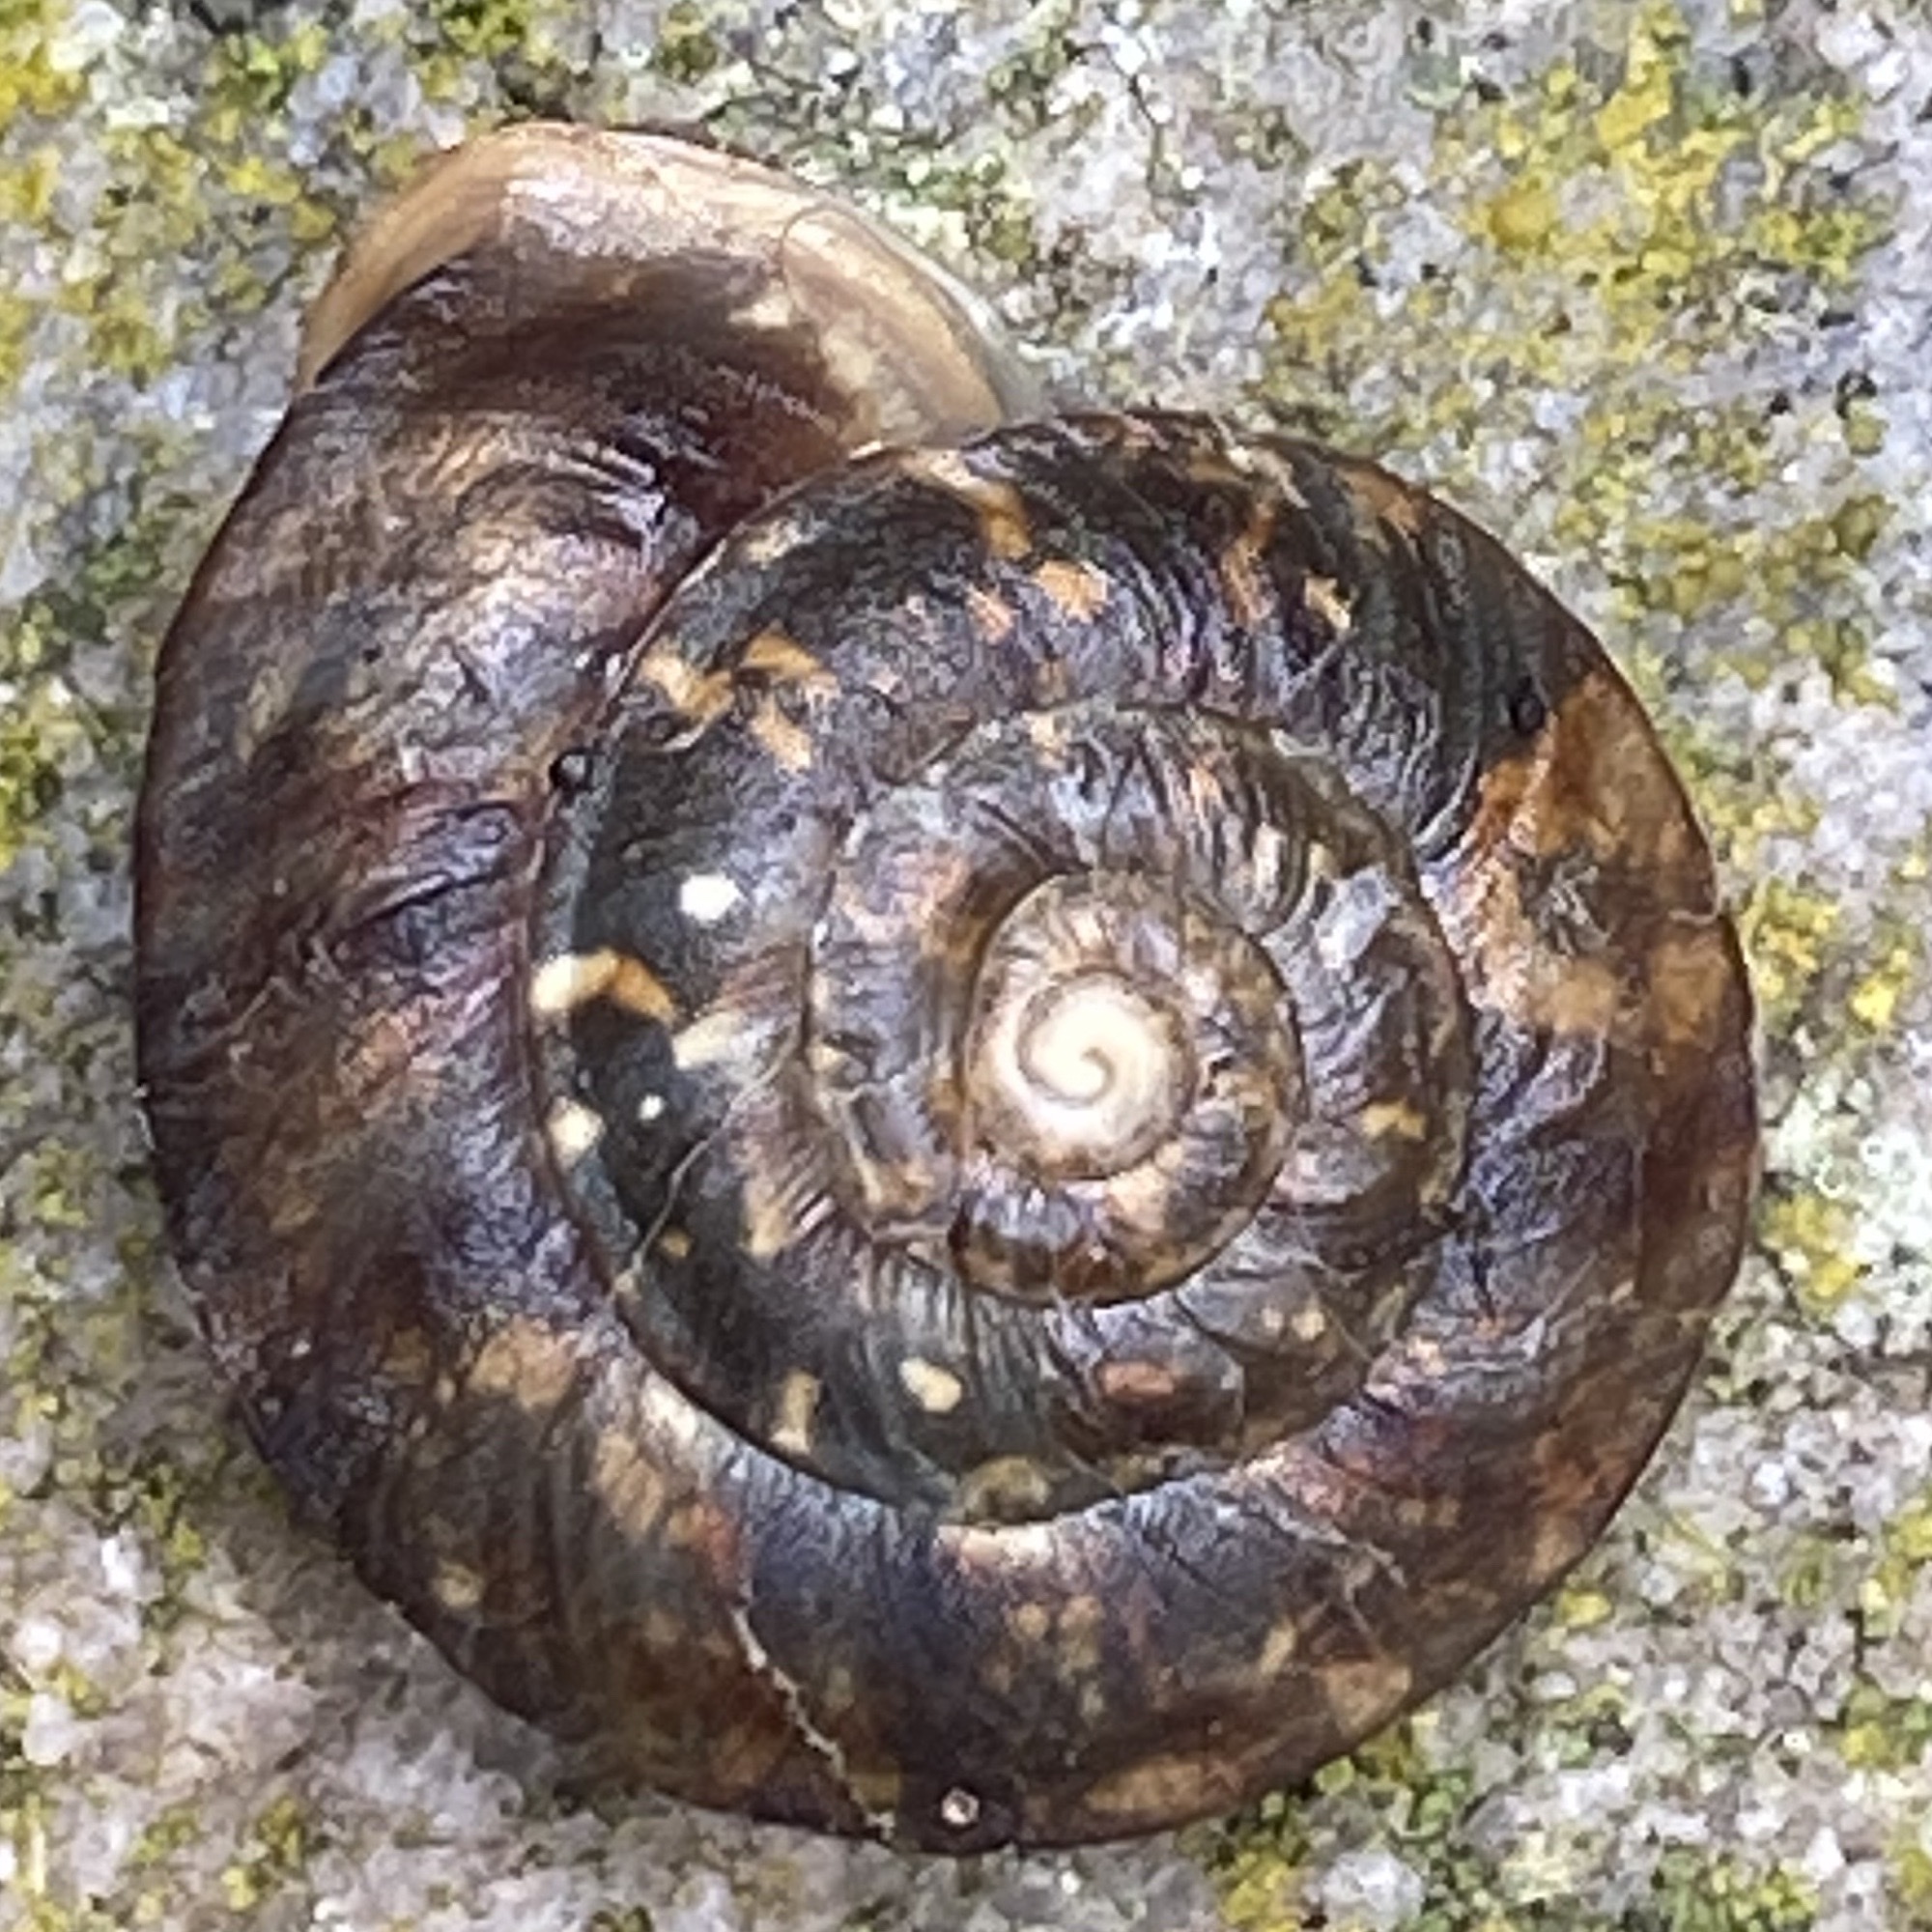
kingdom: Animalia
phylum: Mollusca
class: Gastropoda
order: Stylommatophora
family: Helicidae
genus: Helicigona
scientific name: Helicigona lapicida
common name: Lapidary snail
